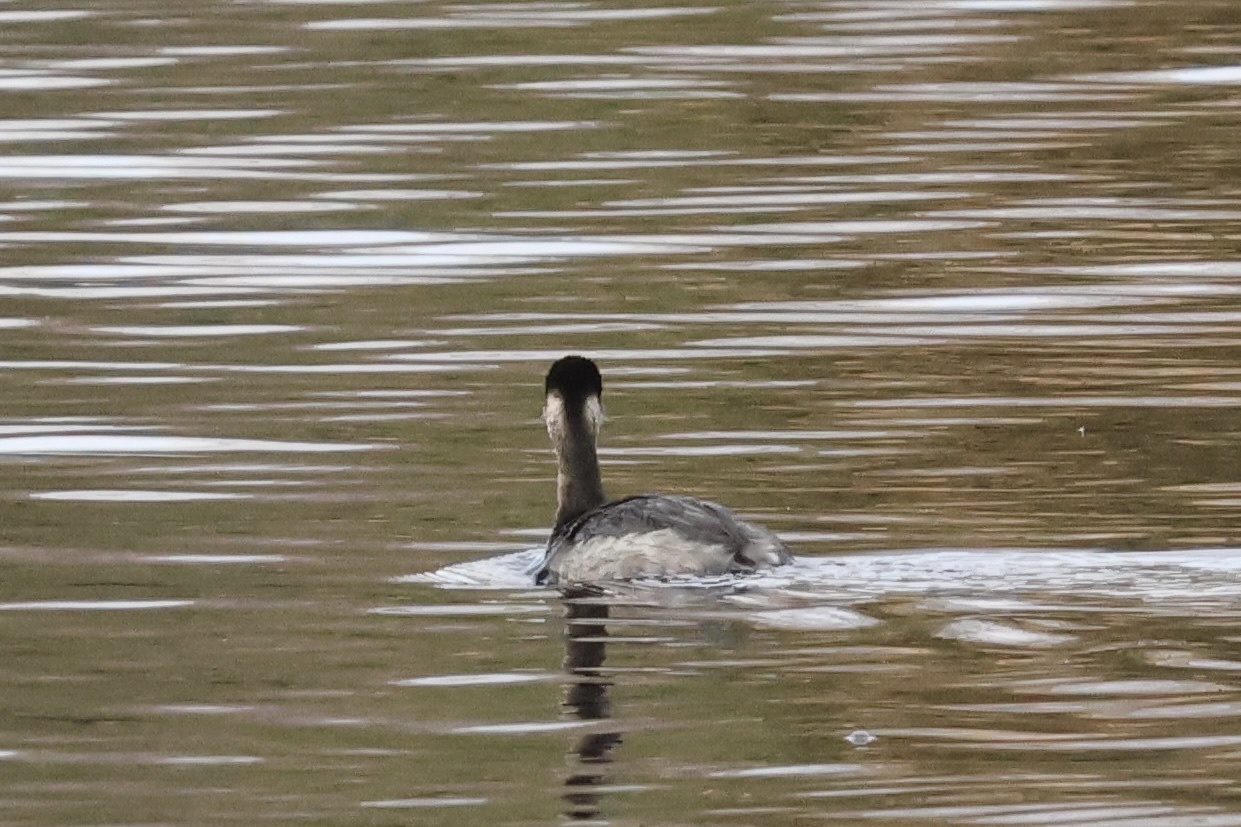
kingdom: Animalia
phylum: Chordata
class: Aves
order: Podicipediformes
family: Podicipedidae
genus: Podiceps
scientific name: Podiceps nigricollis
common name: Black-necked grebe
